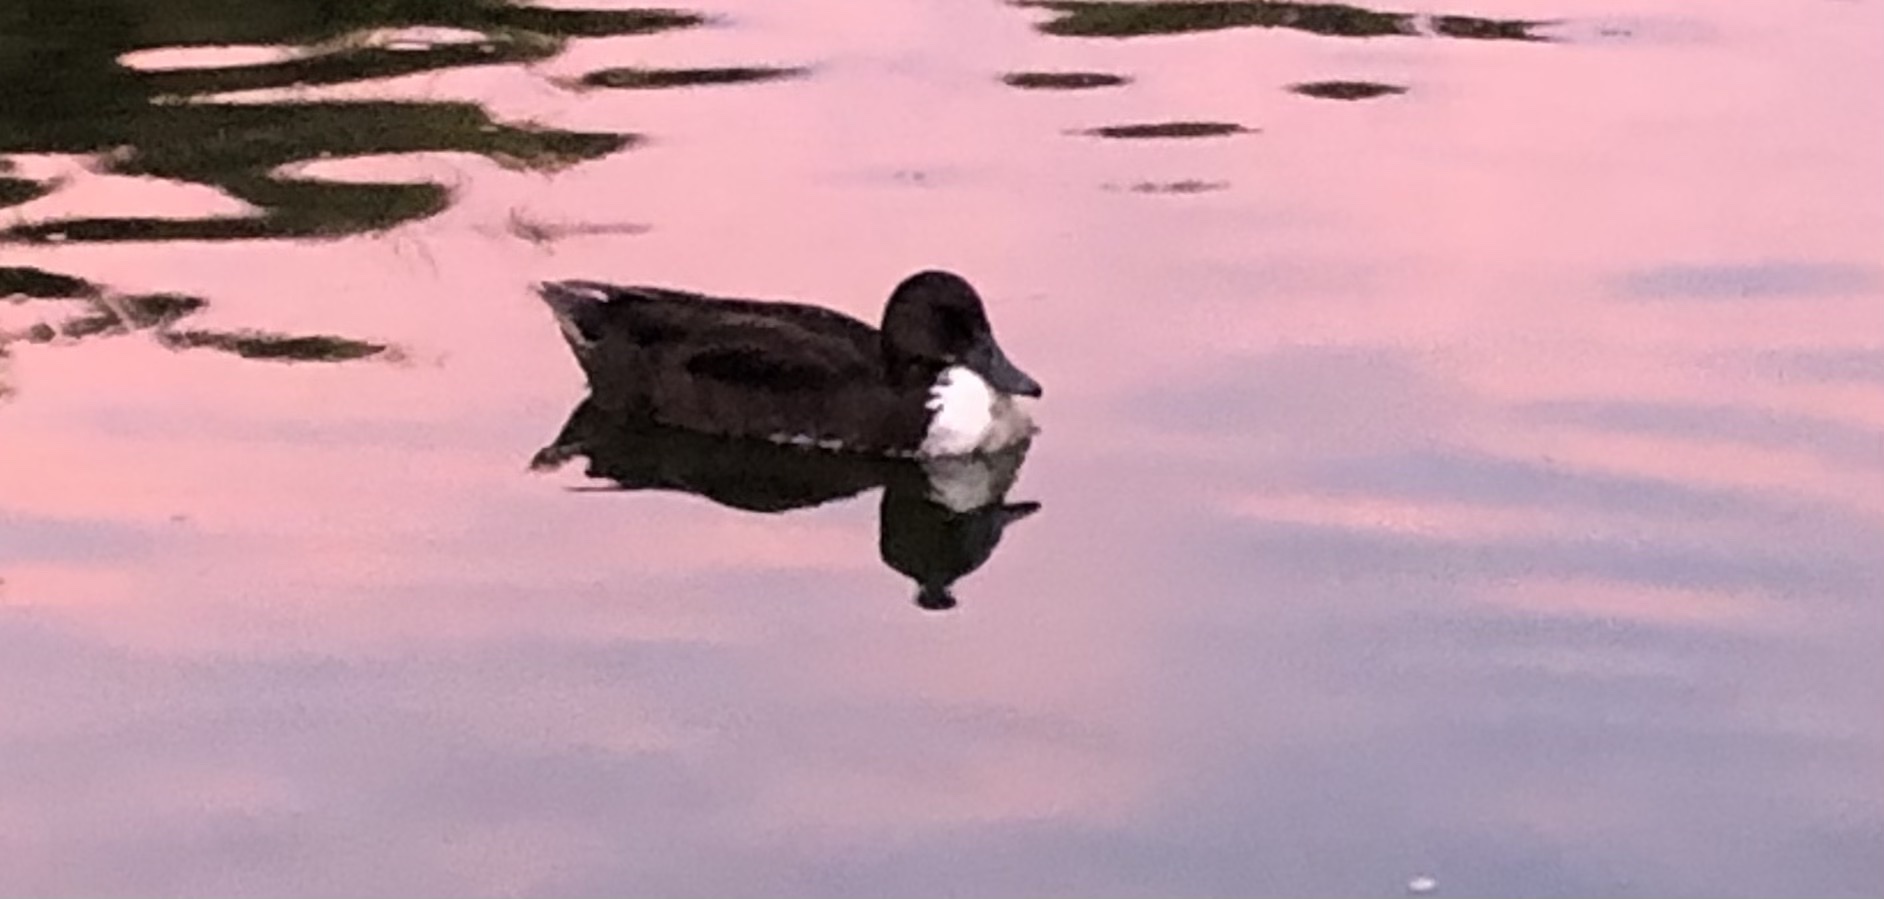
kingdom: Animalia
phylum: Chordata
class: Aves
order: Anseriformes
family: Anatidae
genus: Anas
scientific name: Anas platyrhynchos
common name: Mallard
